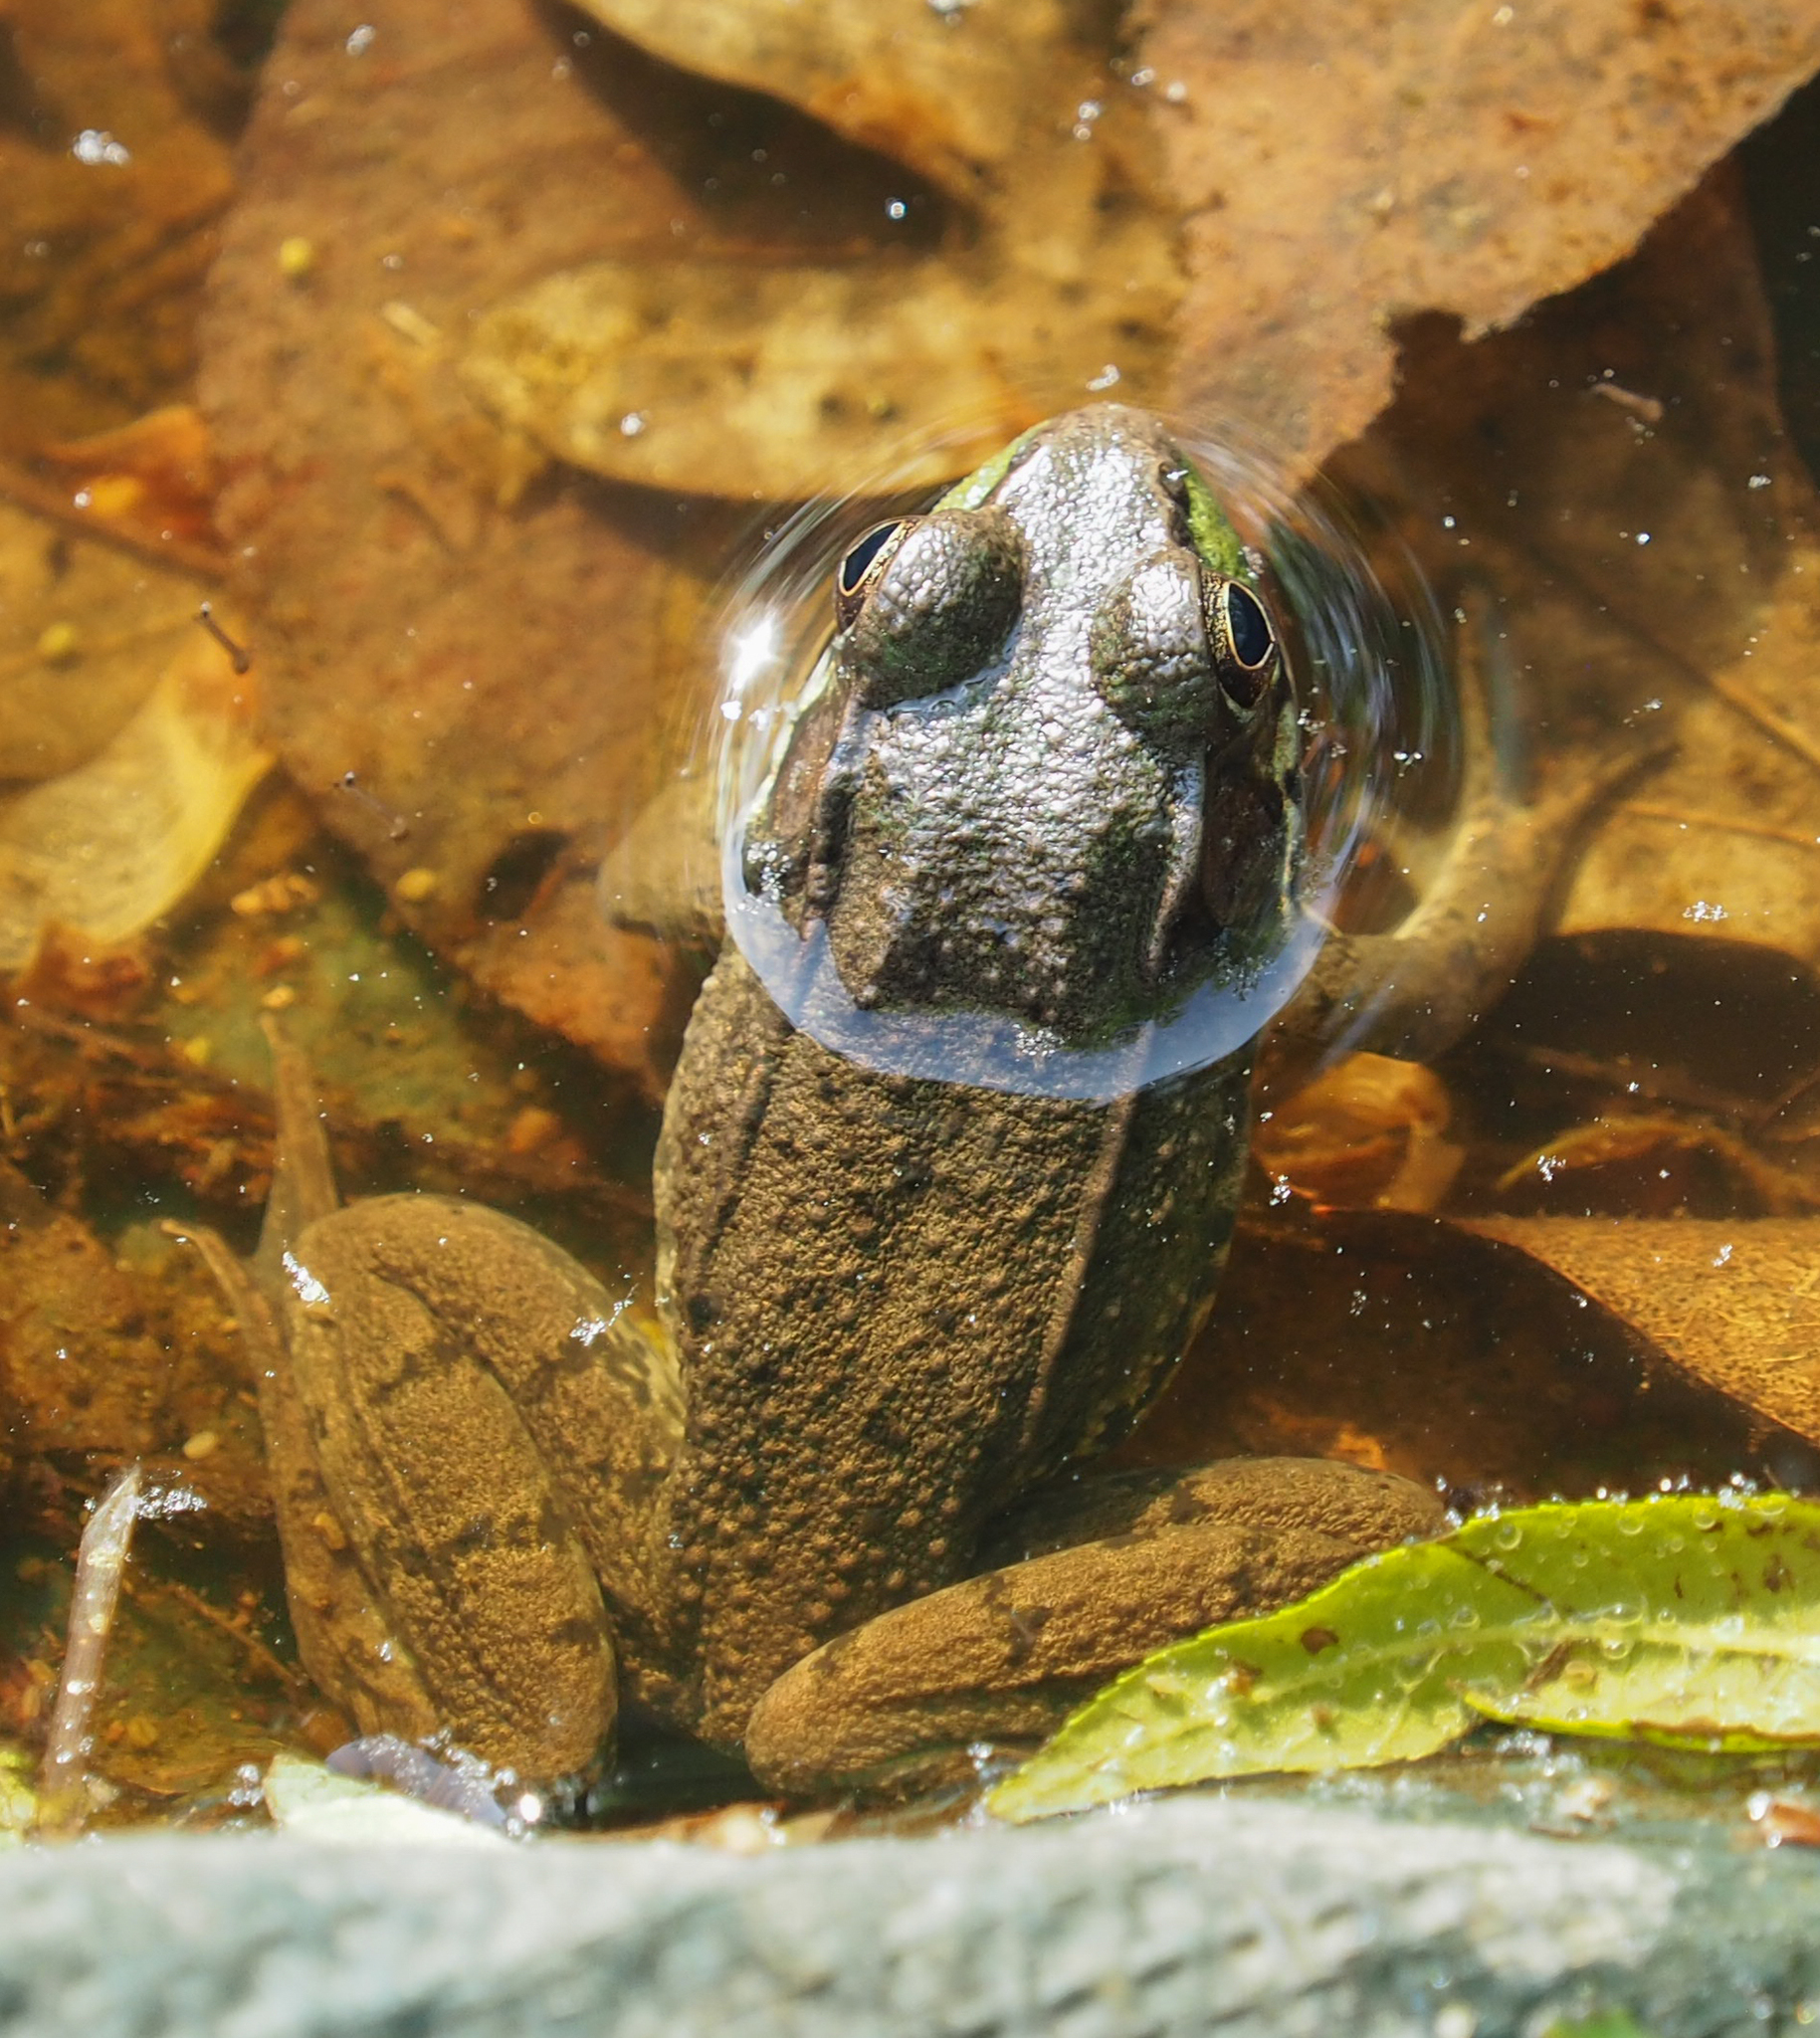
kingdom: Animalia
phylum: Chordata
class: Amphibia
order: Anura
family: Ranidae
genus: Lithobates
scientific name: Lithobates clamitans
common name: Green frog
